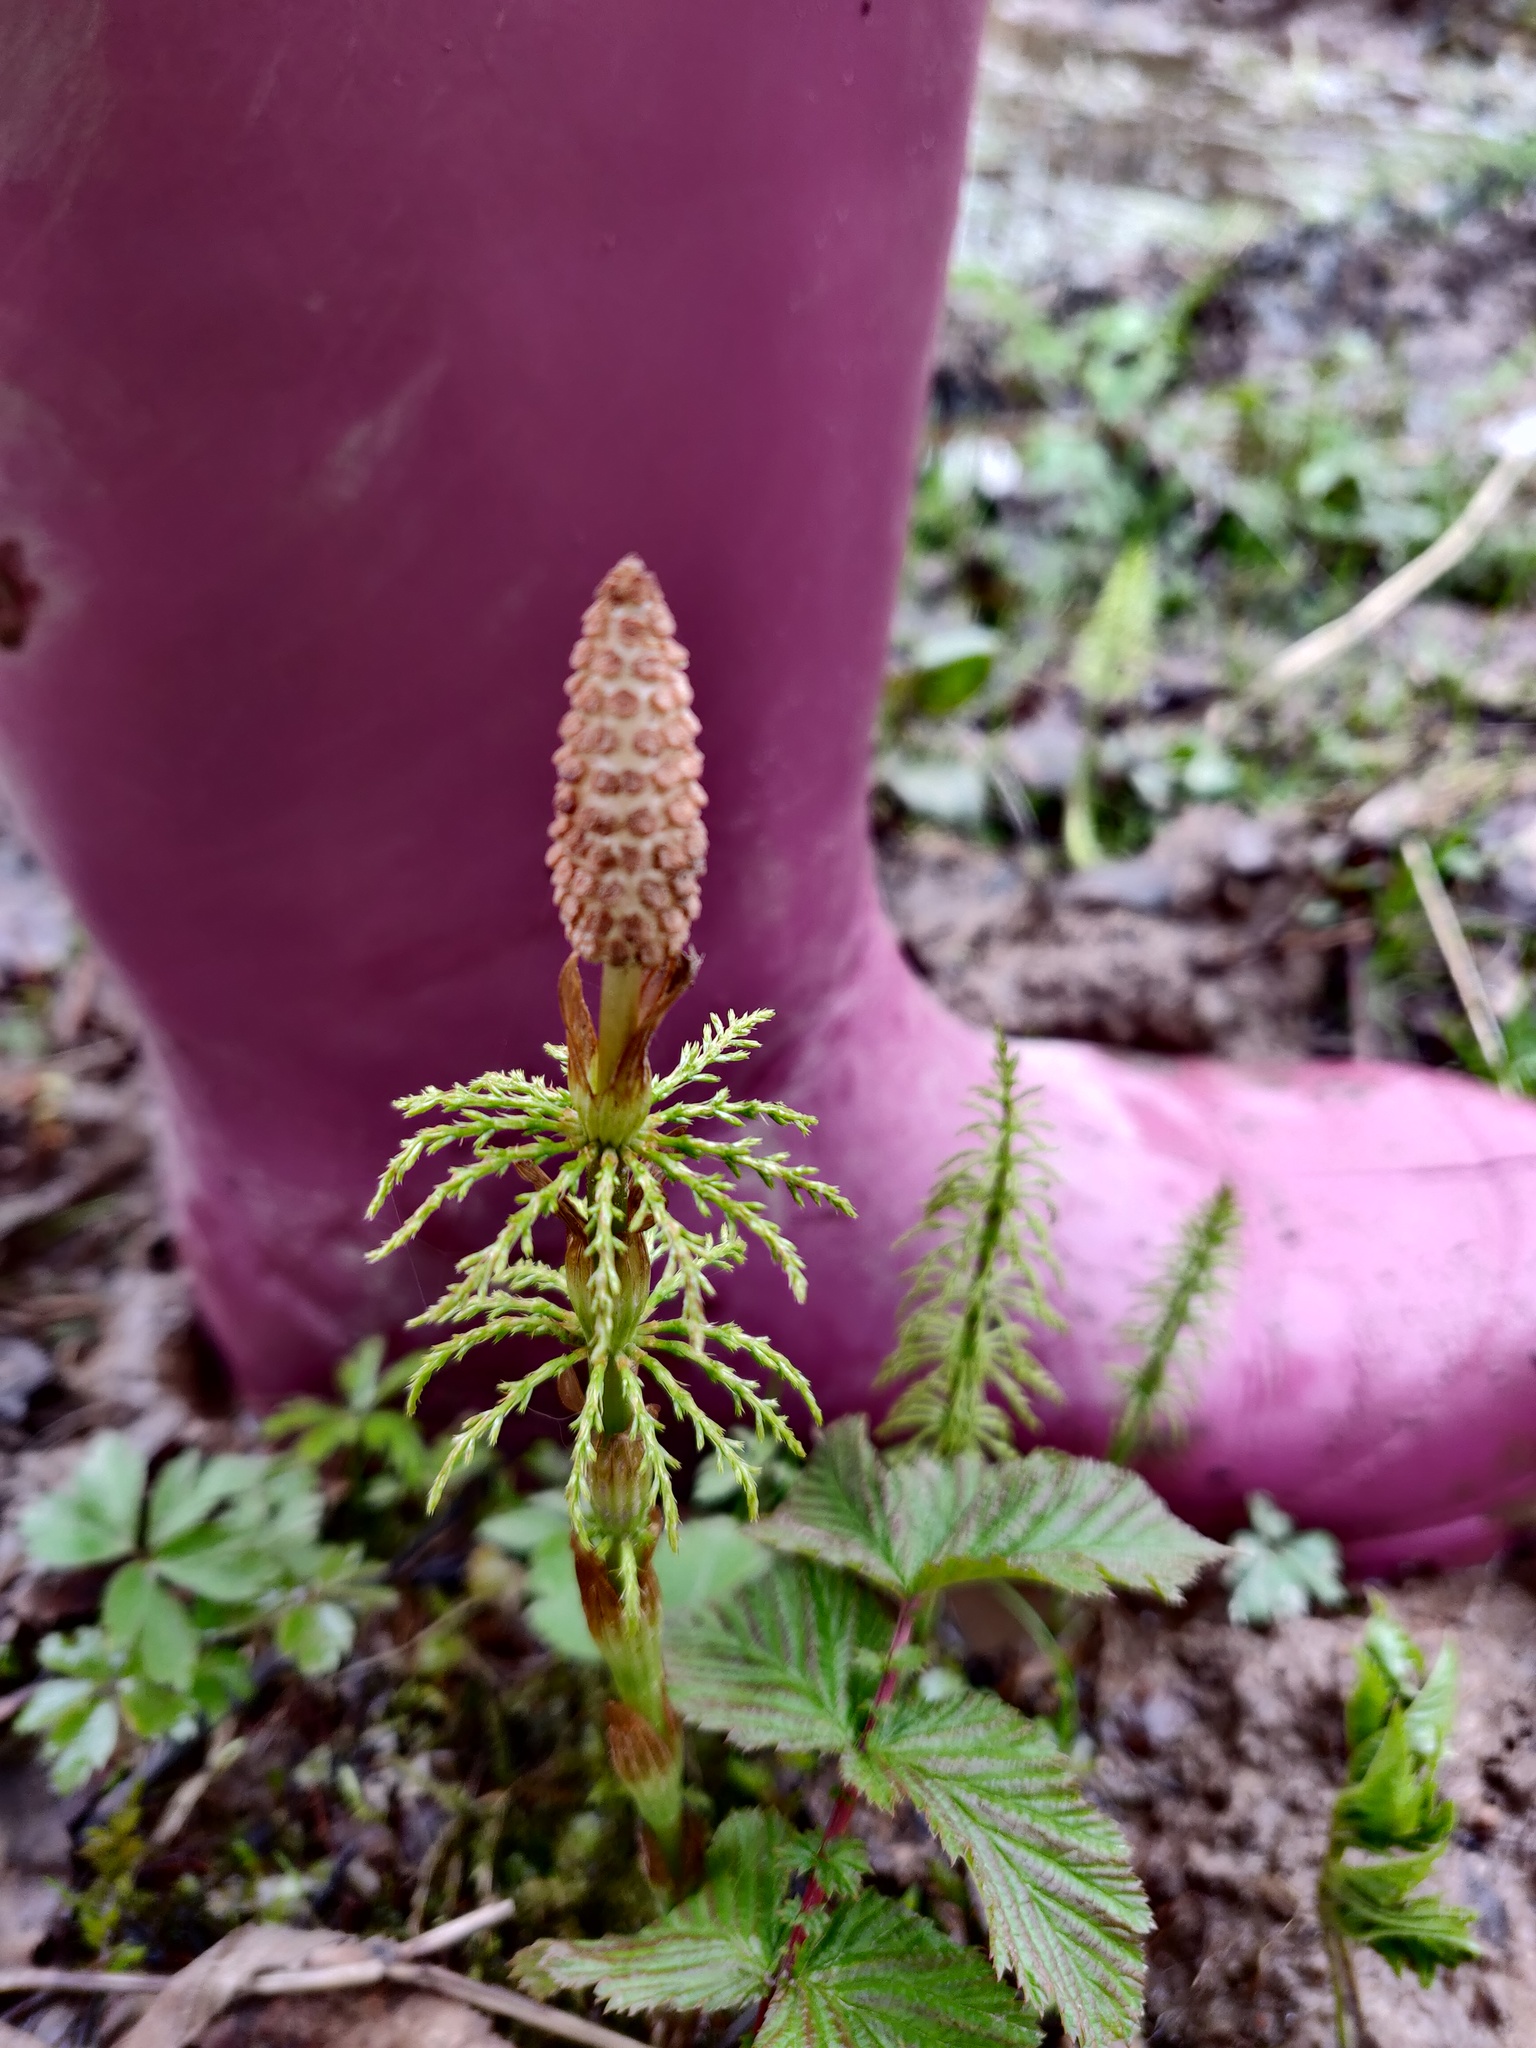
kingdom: Plantae
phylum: Tracheophyta
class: Polypodiopsida
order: Equisetales
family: Equisetaceae
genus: Equisetum
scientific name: Equisetum sylvaticum
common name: Wood horsetail
